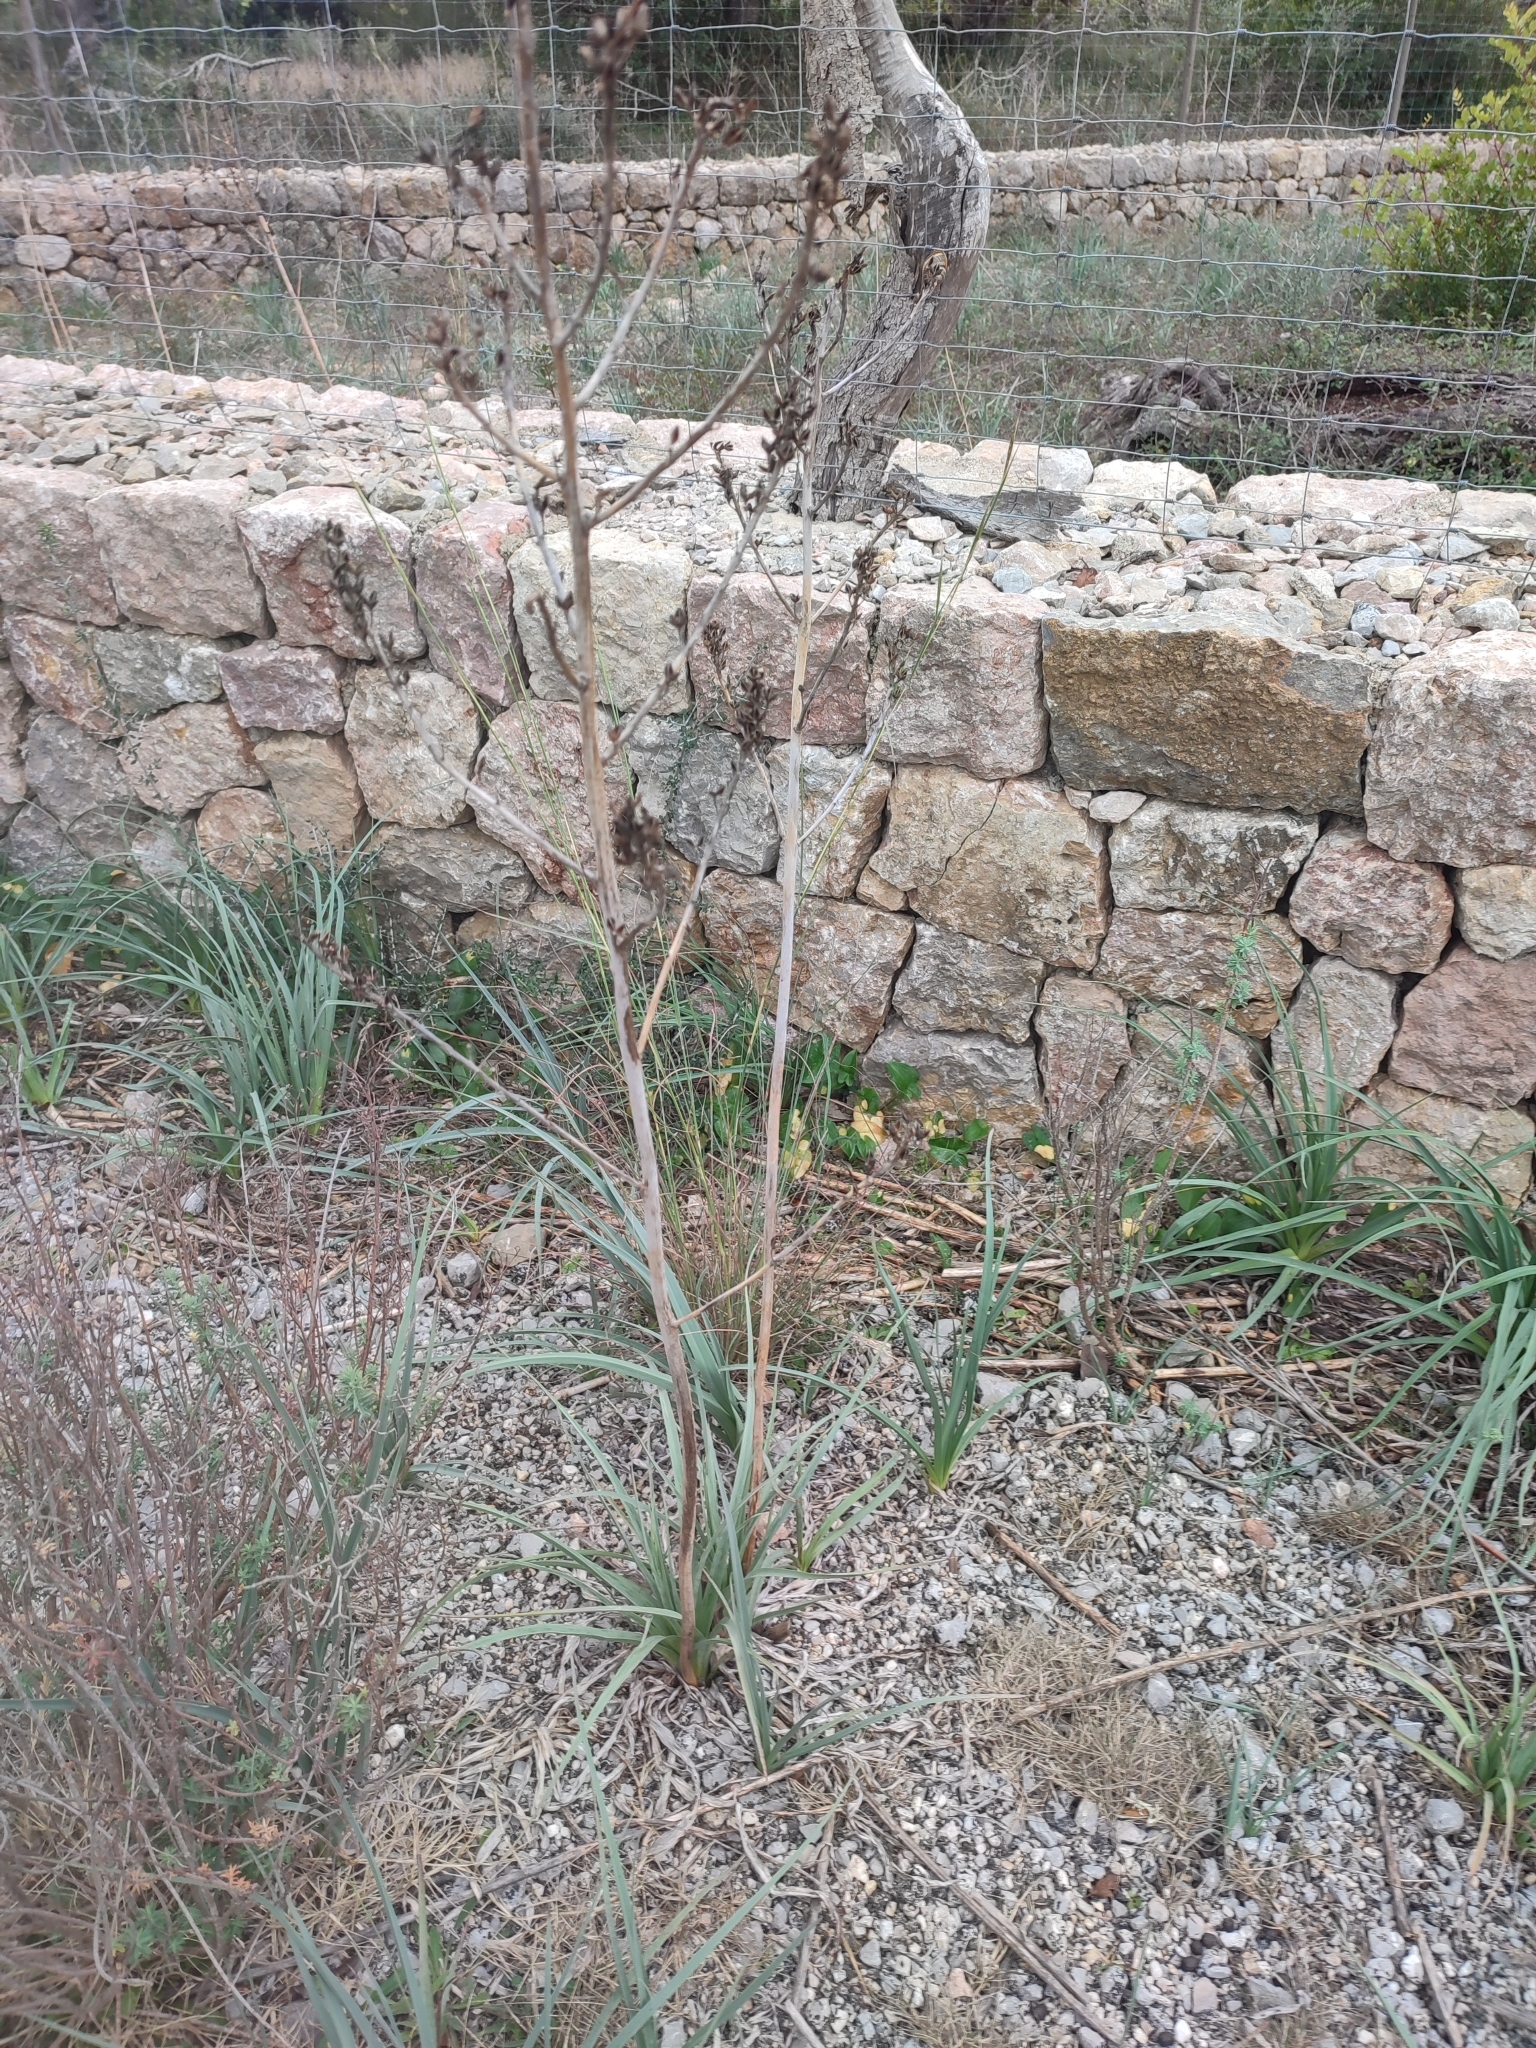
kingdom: Plantae
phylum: Tracheophyta
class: Liliopsida
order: Asparagales
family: Asphodelaceae
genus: Asphodelus
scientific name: Asphodelus ramosus
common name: Silverrod
